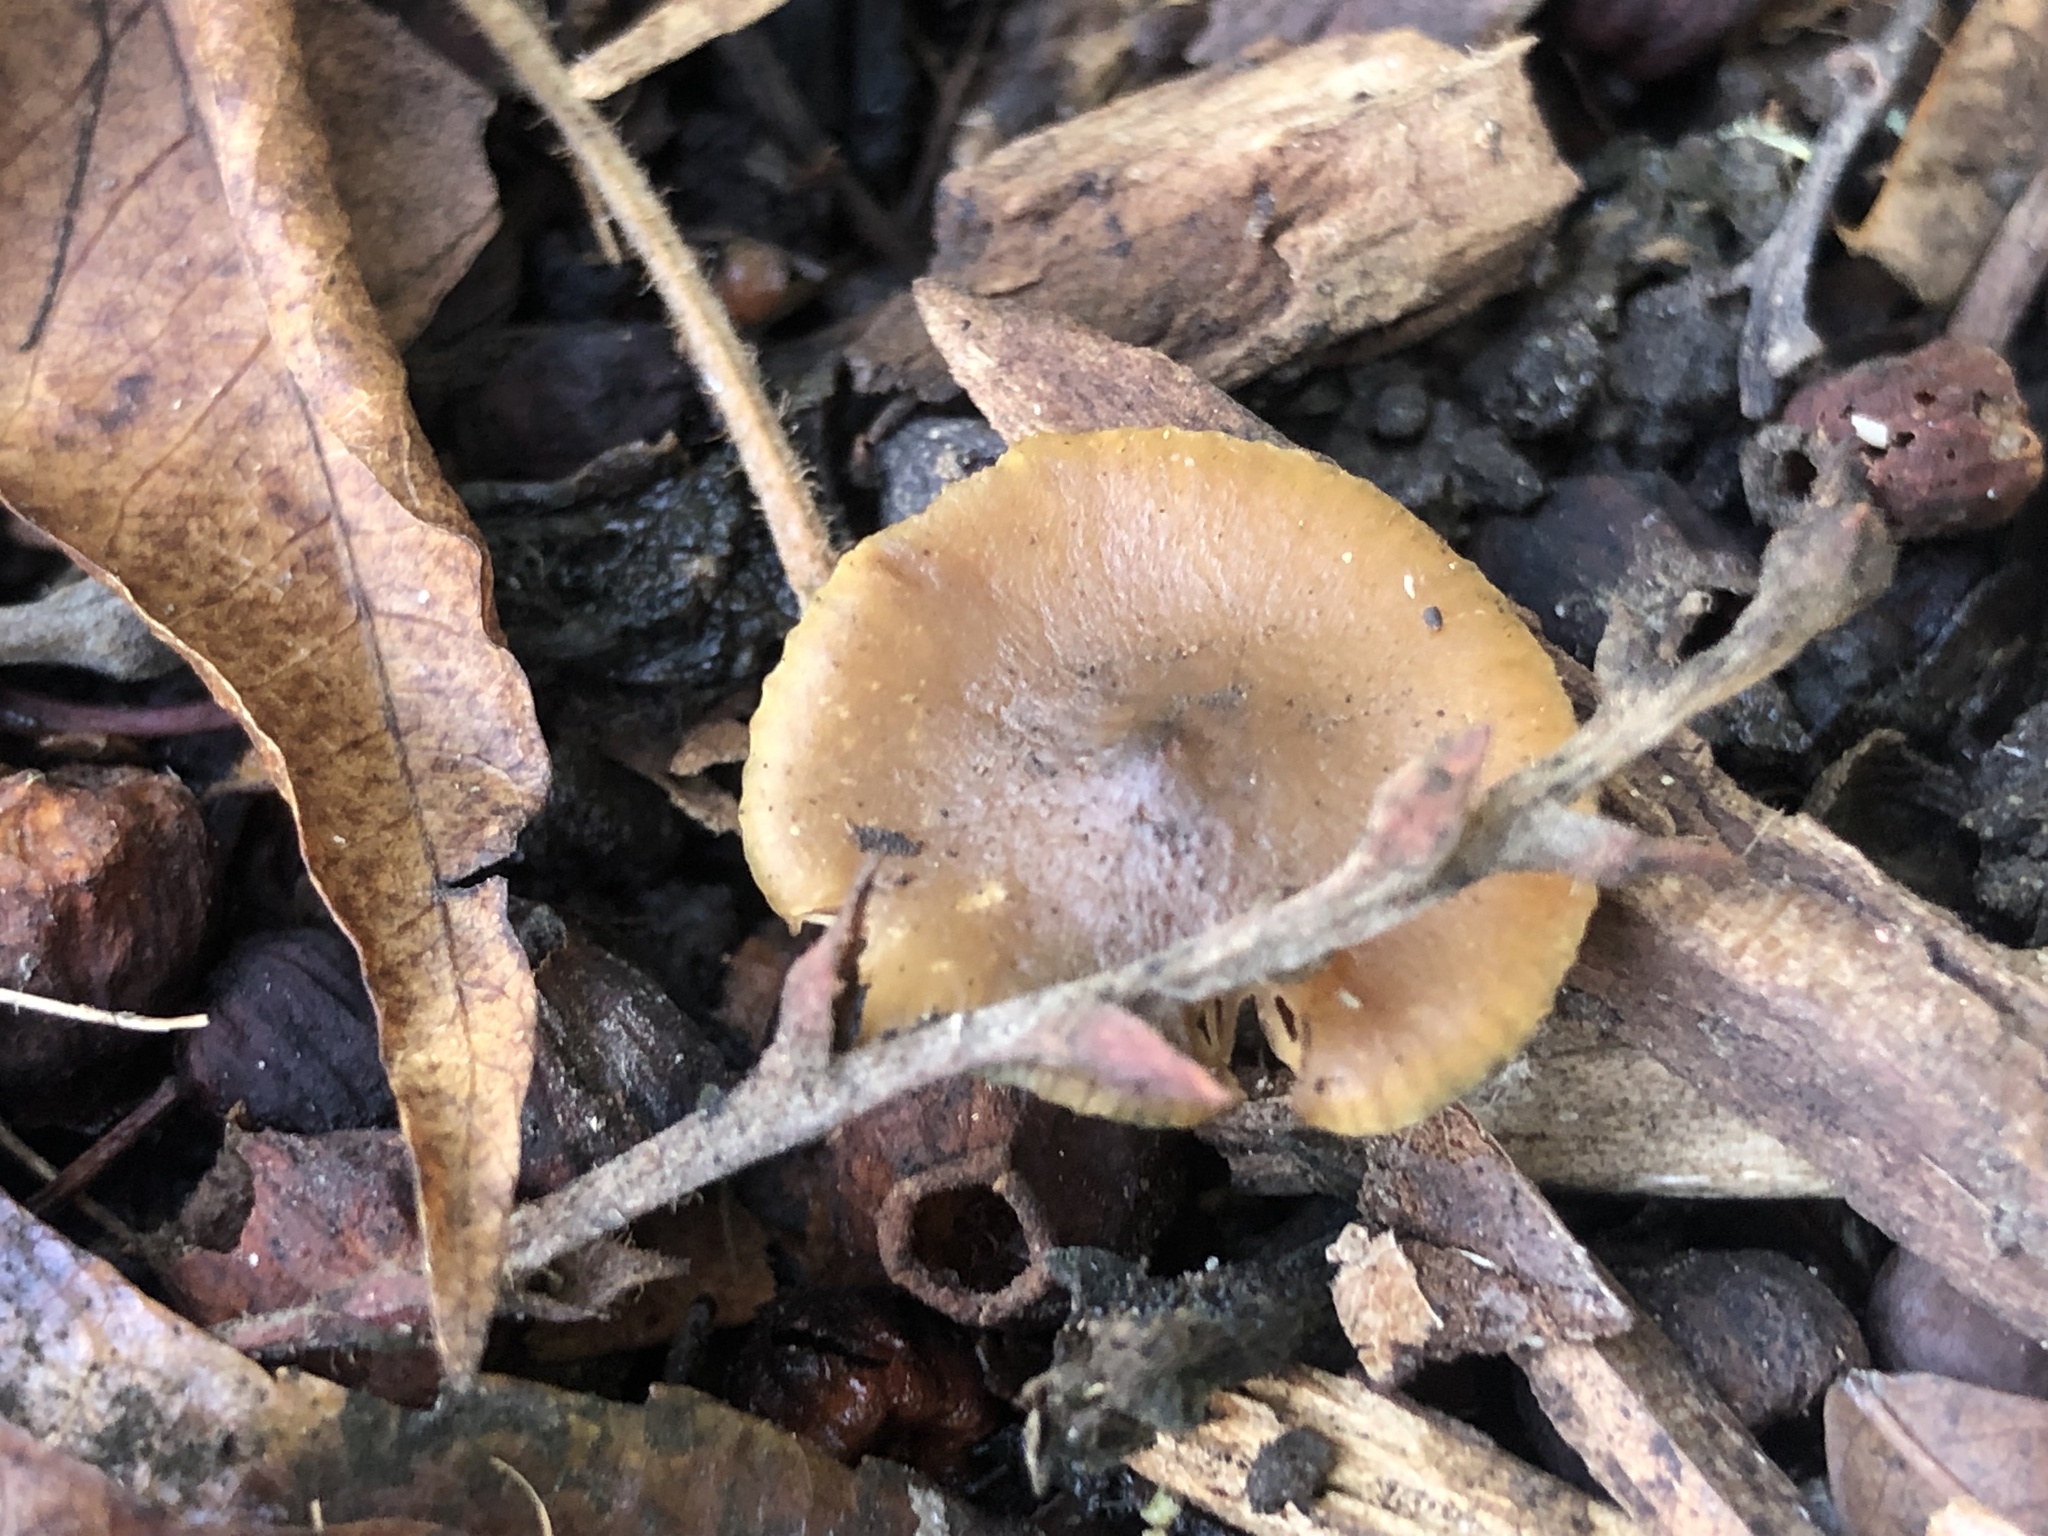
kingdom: Fungi
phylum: Basidiomycota
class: Agaricomycetes
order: Agaricales
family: Hymenogastraceae
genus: Psilocybe
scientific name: Psilocybe cyanescens
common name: Blueleg brownie
